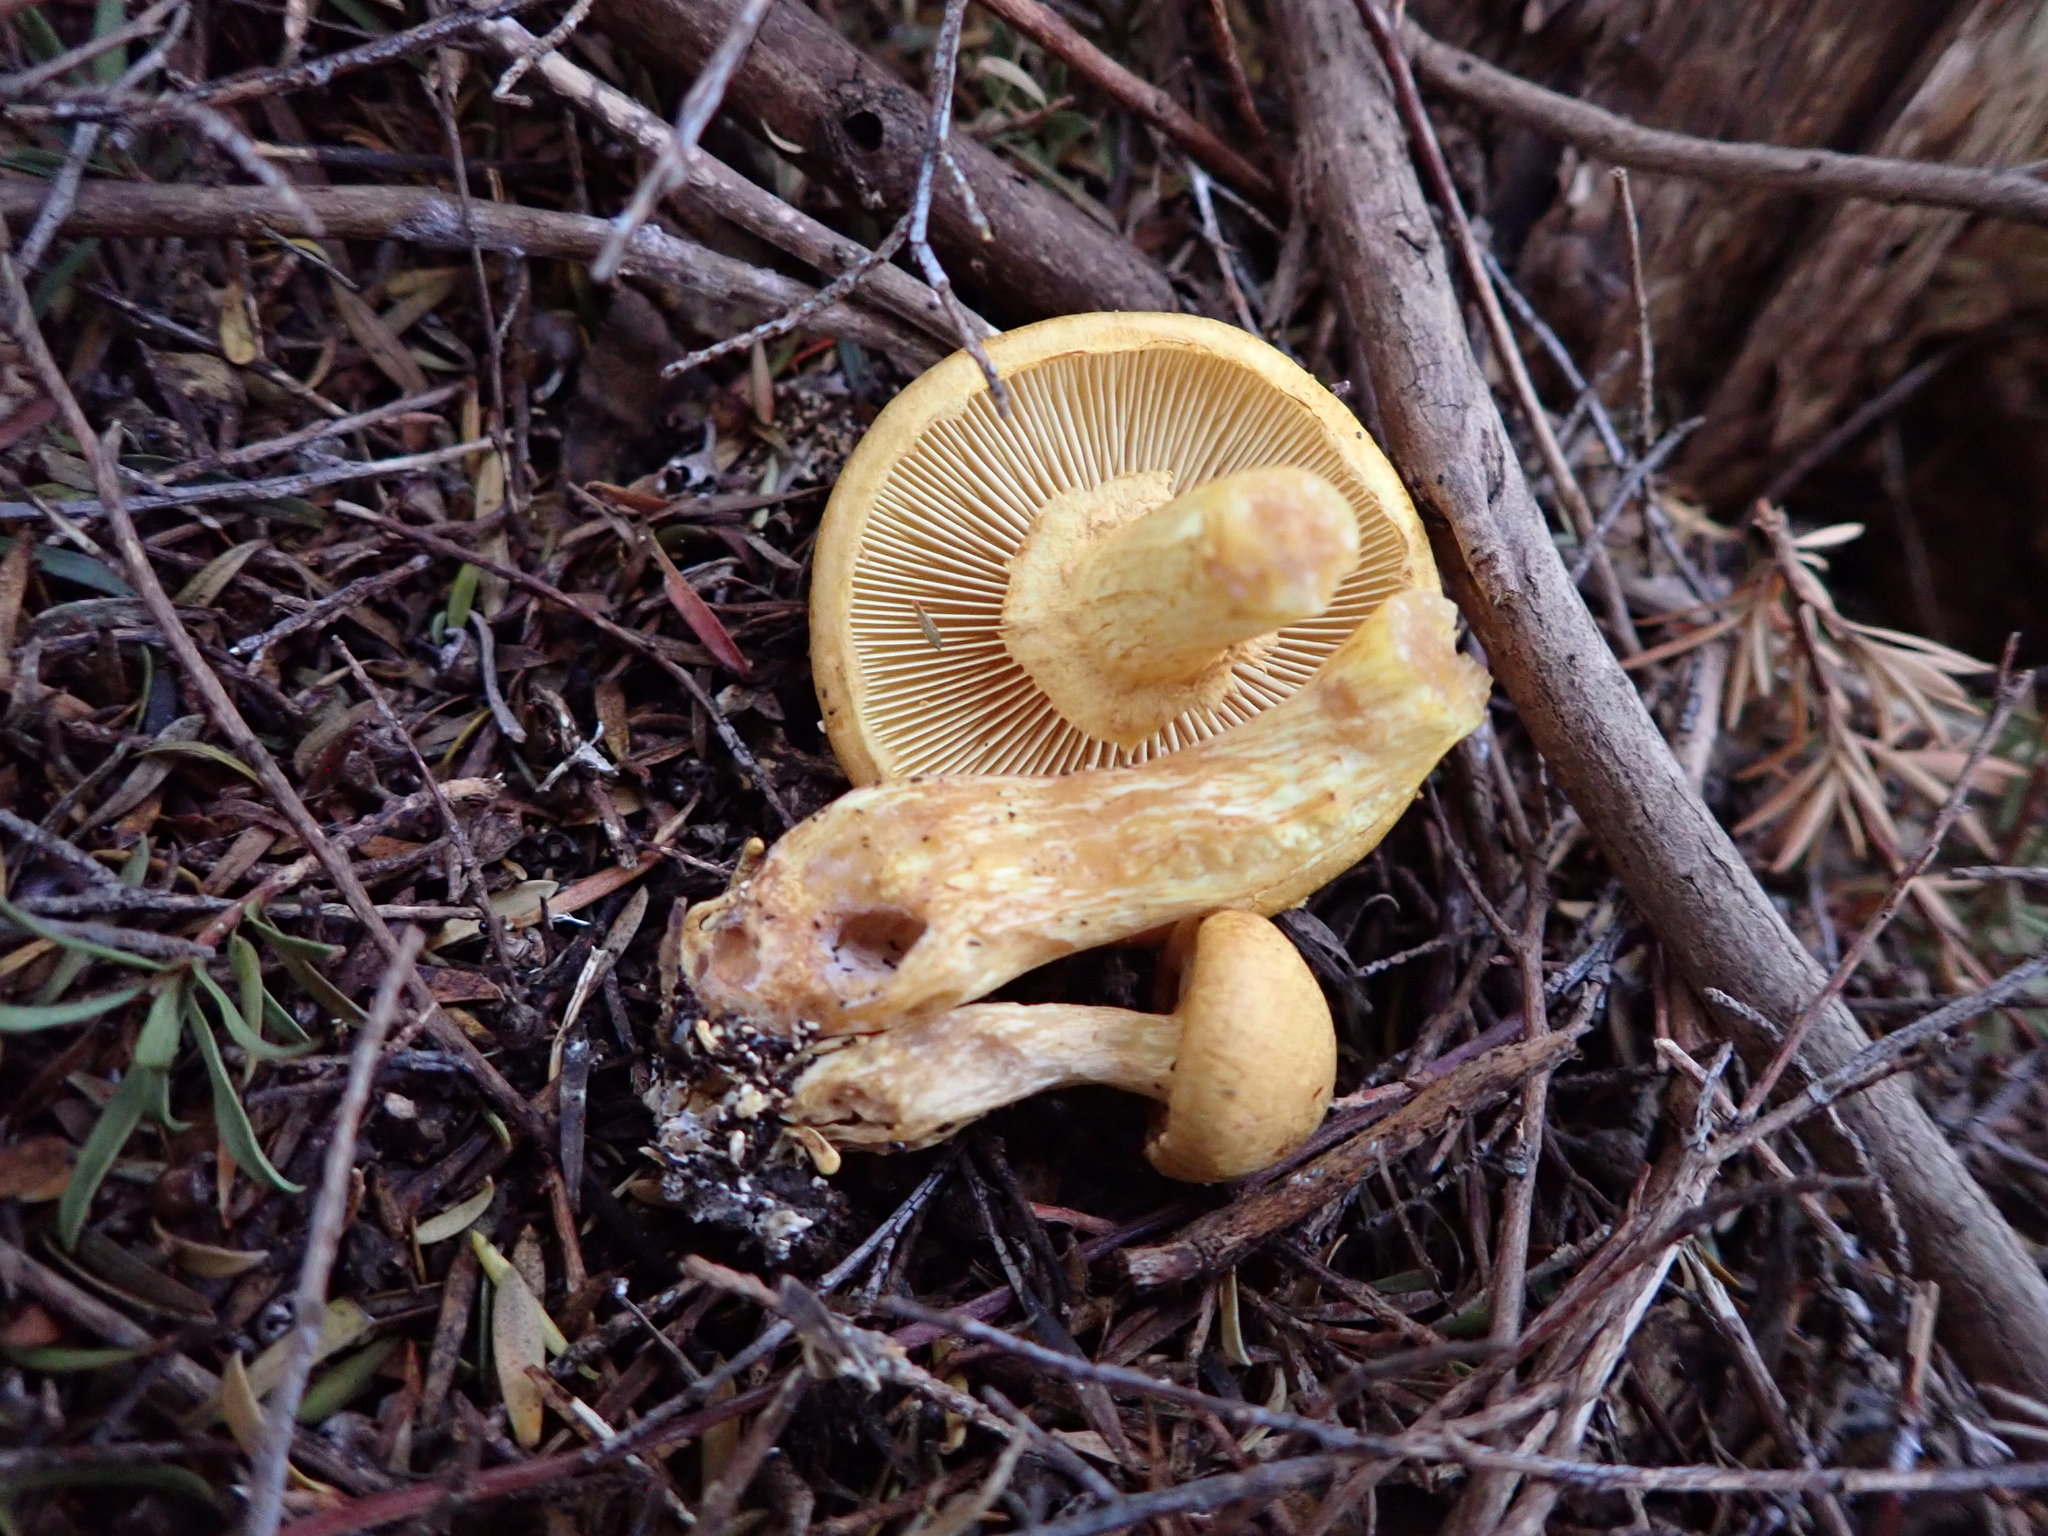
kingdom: Fungi
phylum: Basidiomycota
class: Agaricomycetes
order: Agaricales
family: Hymenogastraceae
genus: Gymnopilus
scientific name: Gymnopilus junonius
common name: Spectacular rustgill
